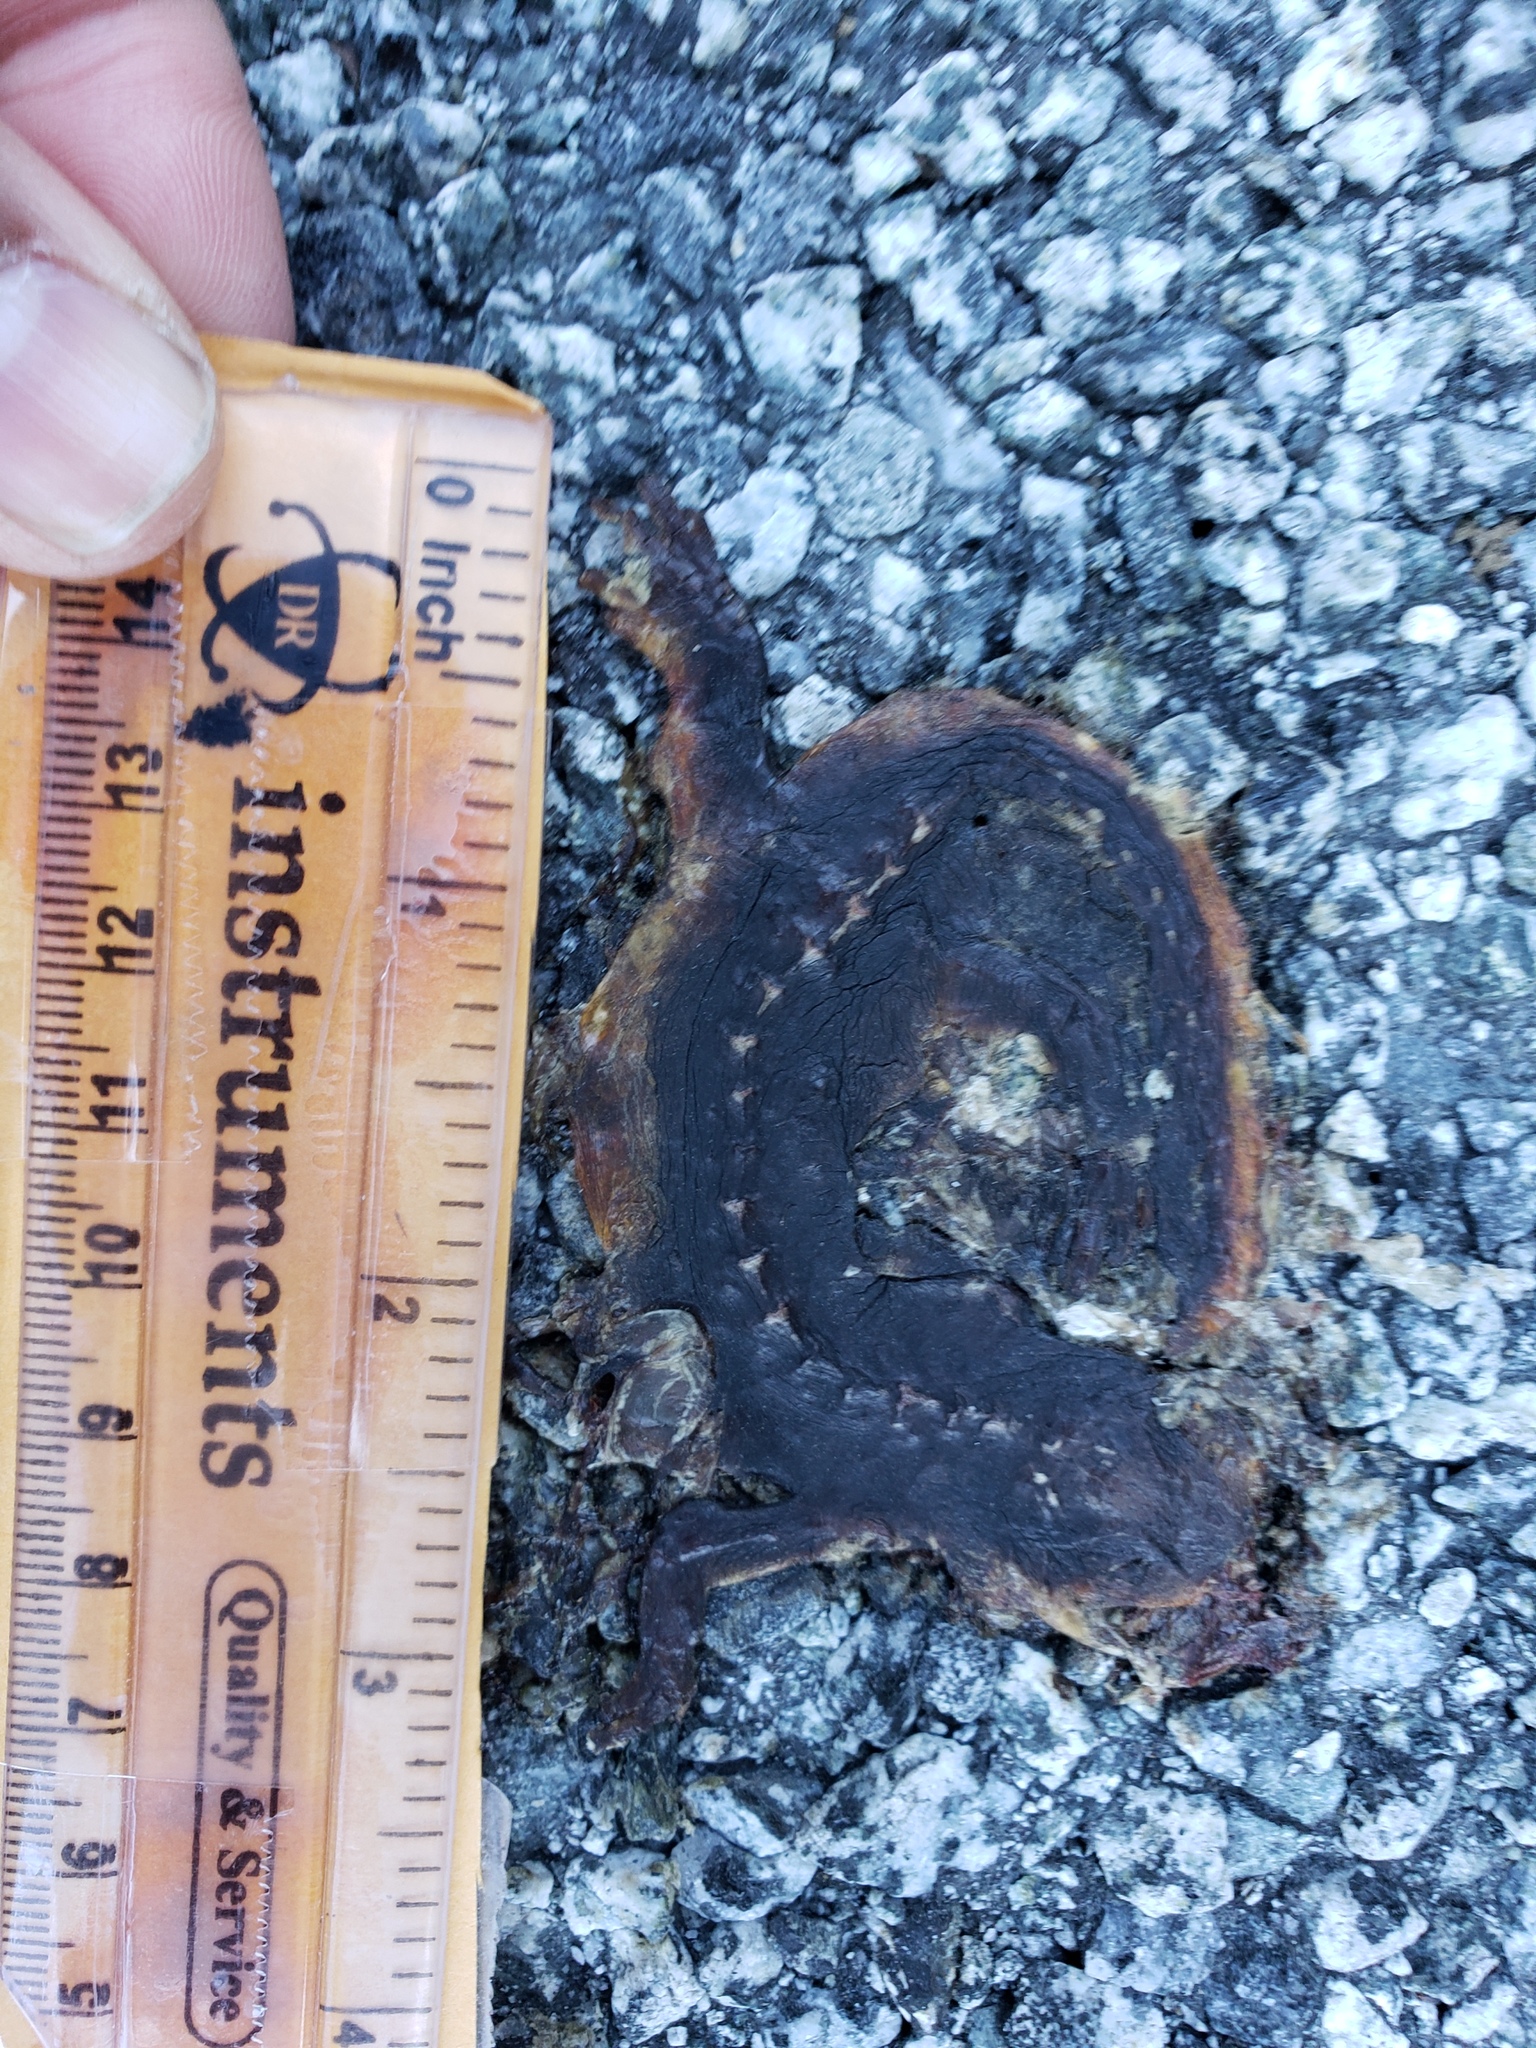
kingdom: Animalia
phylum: Chordata
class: Amphibia
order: Caudata
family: Salamandridae
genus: Taricha
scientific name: Taricha
